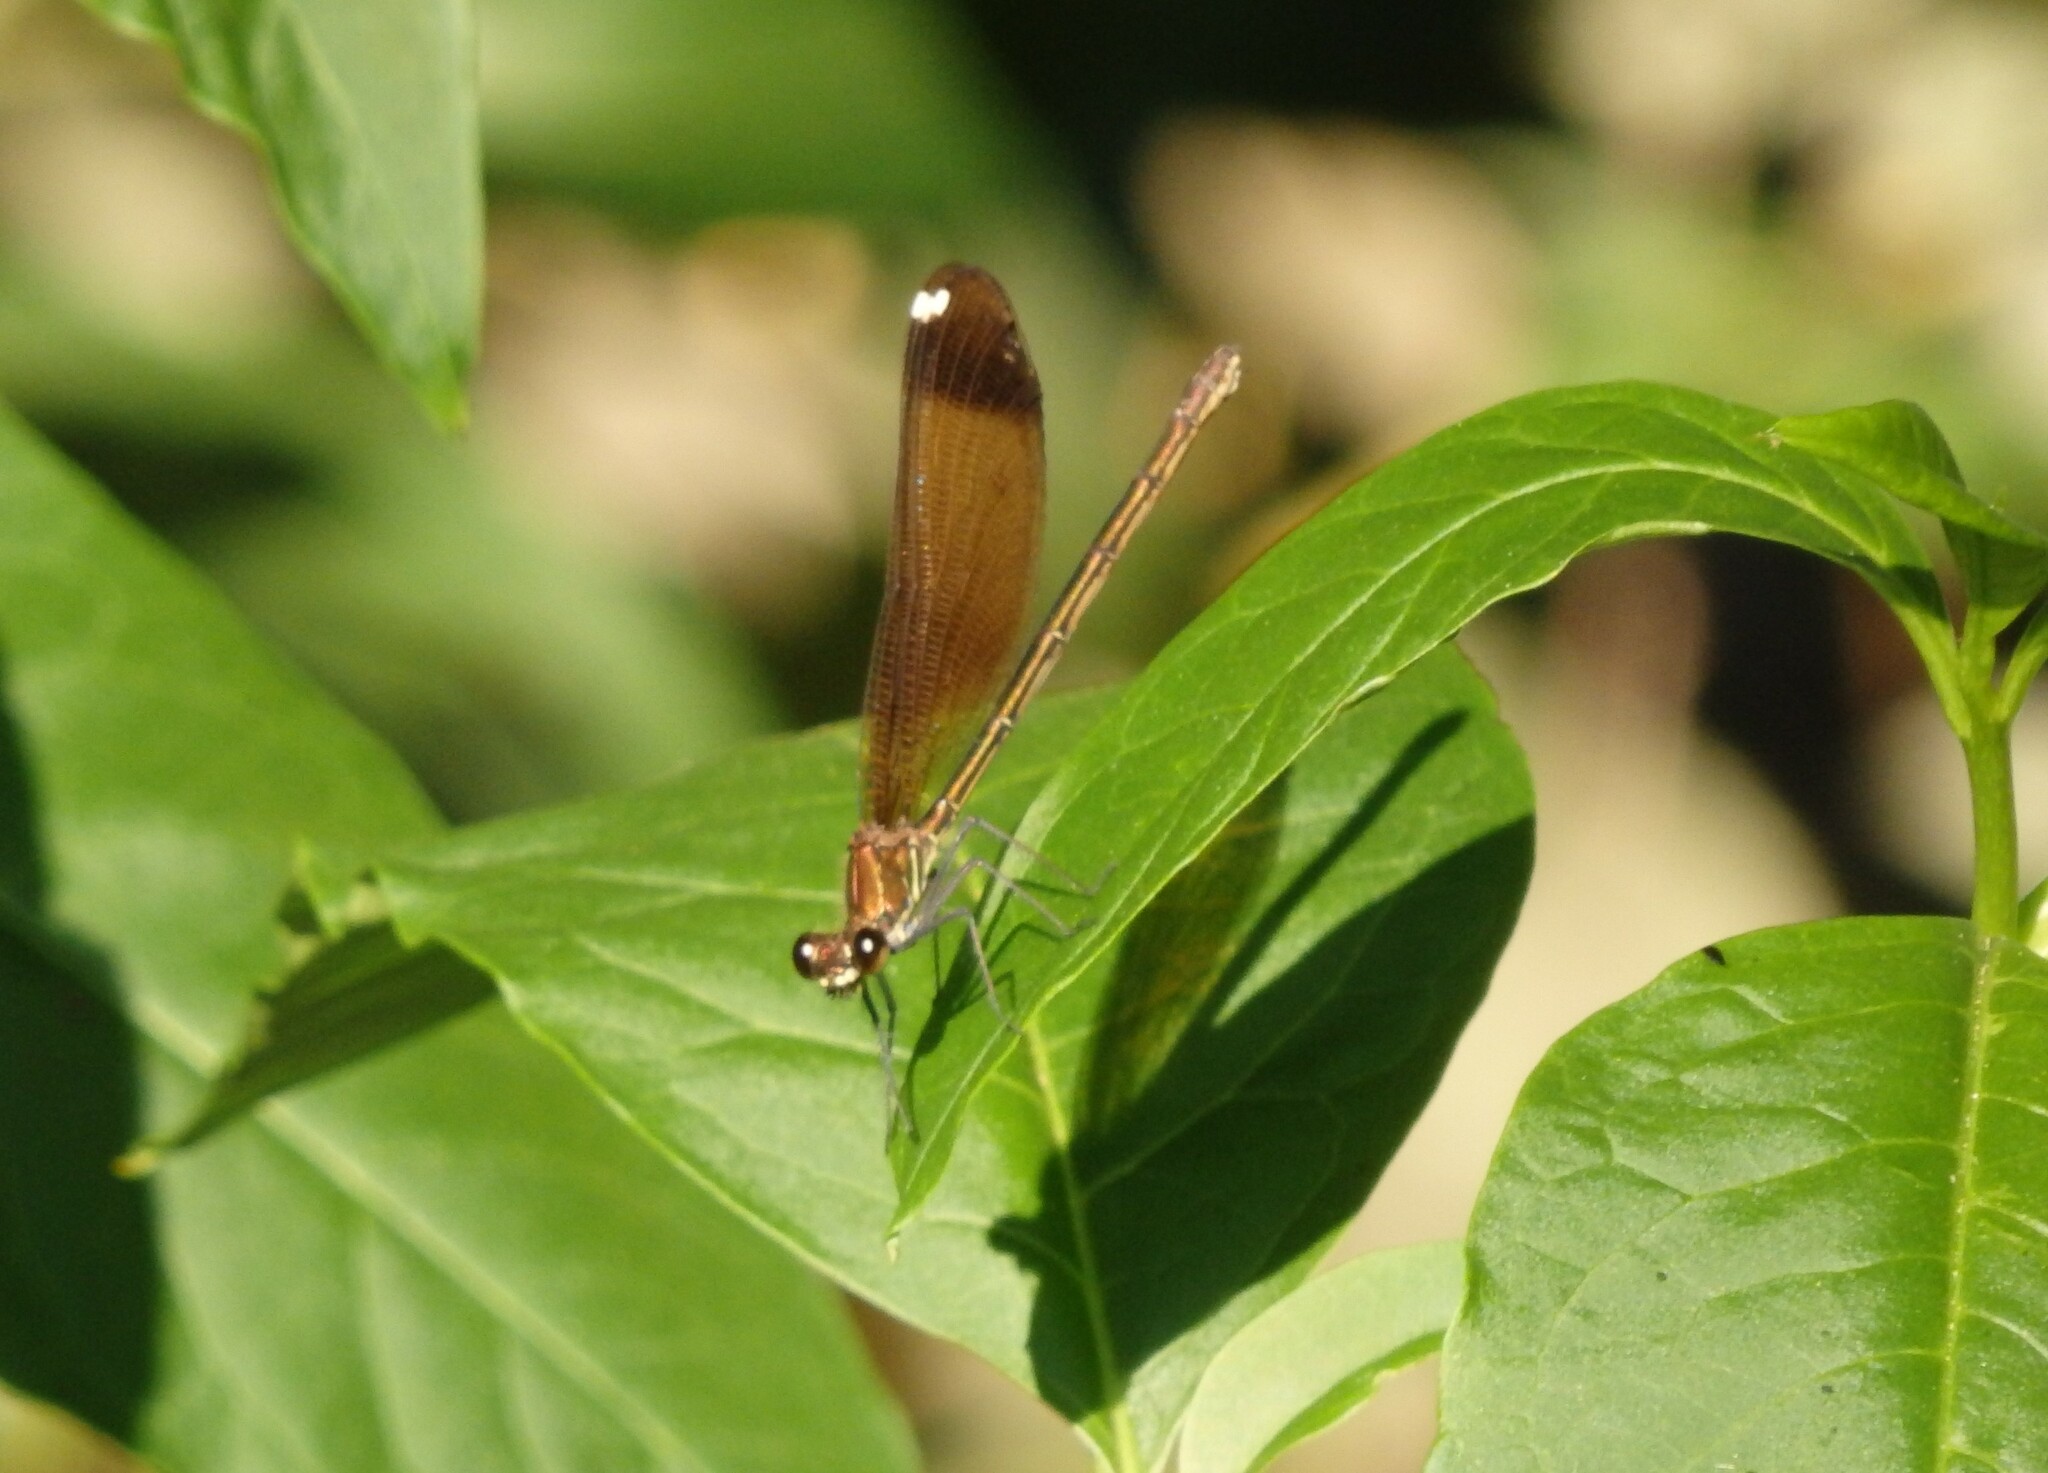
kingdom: Animalia
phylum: Arthropoda
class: Insecta
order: Odonata
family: Calopterygidae
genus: Calopteryx
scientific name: Calopteryx haemorrhoidalis
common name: Copper demoiselle
